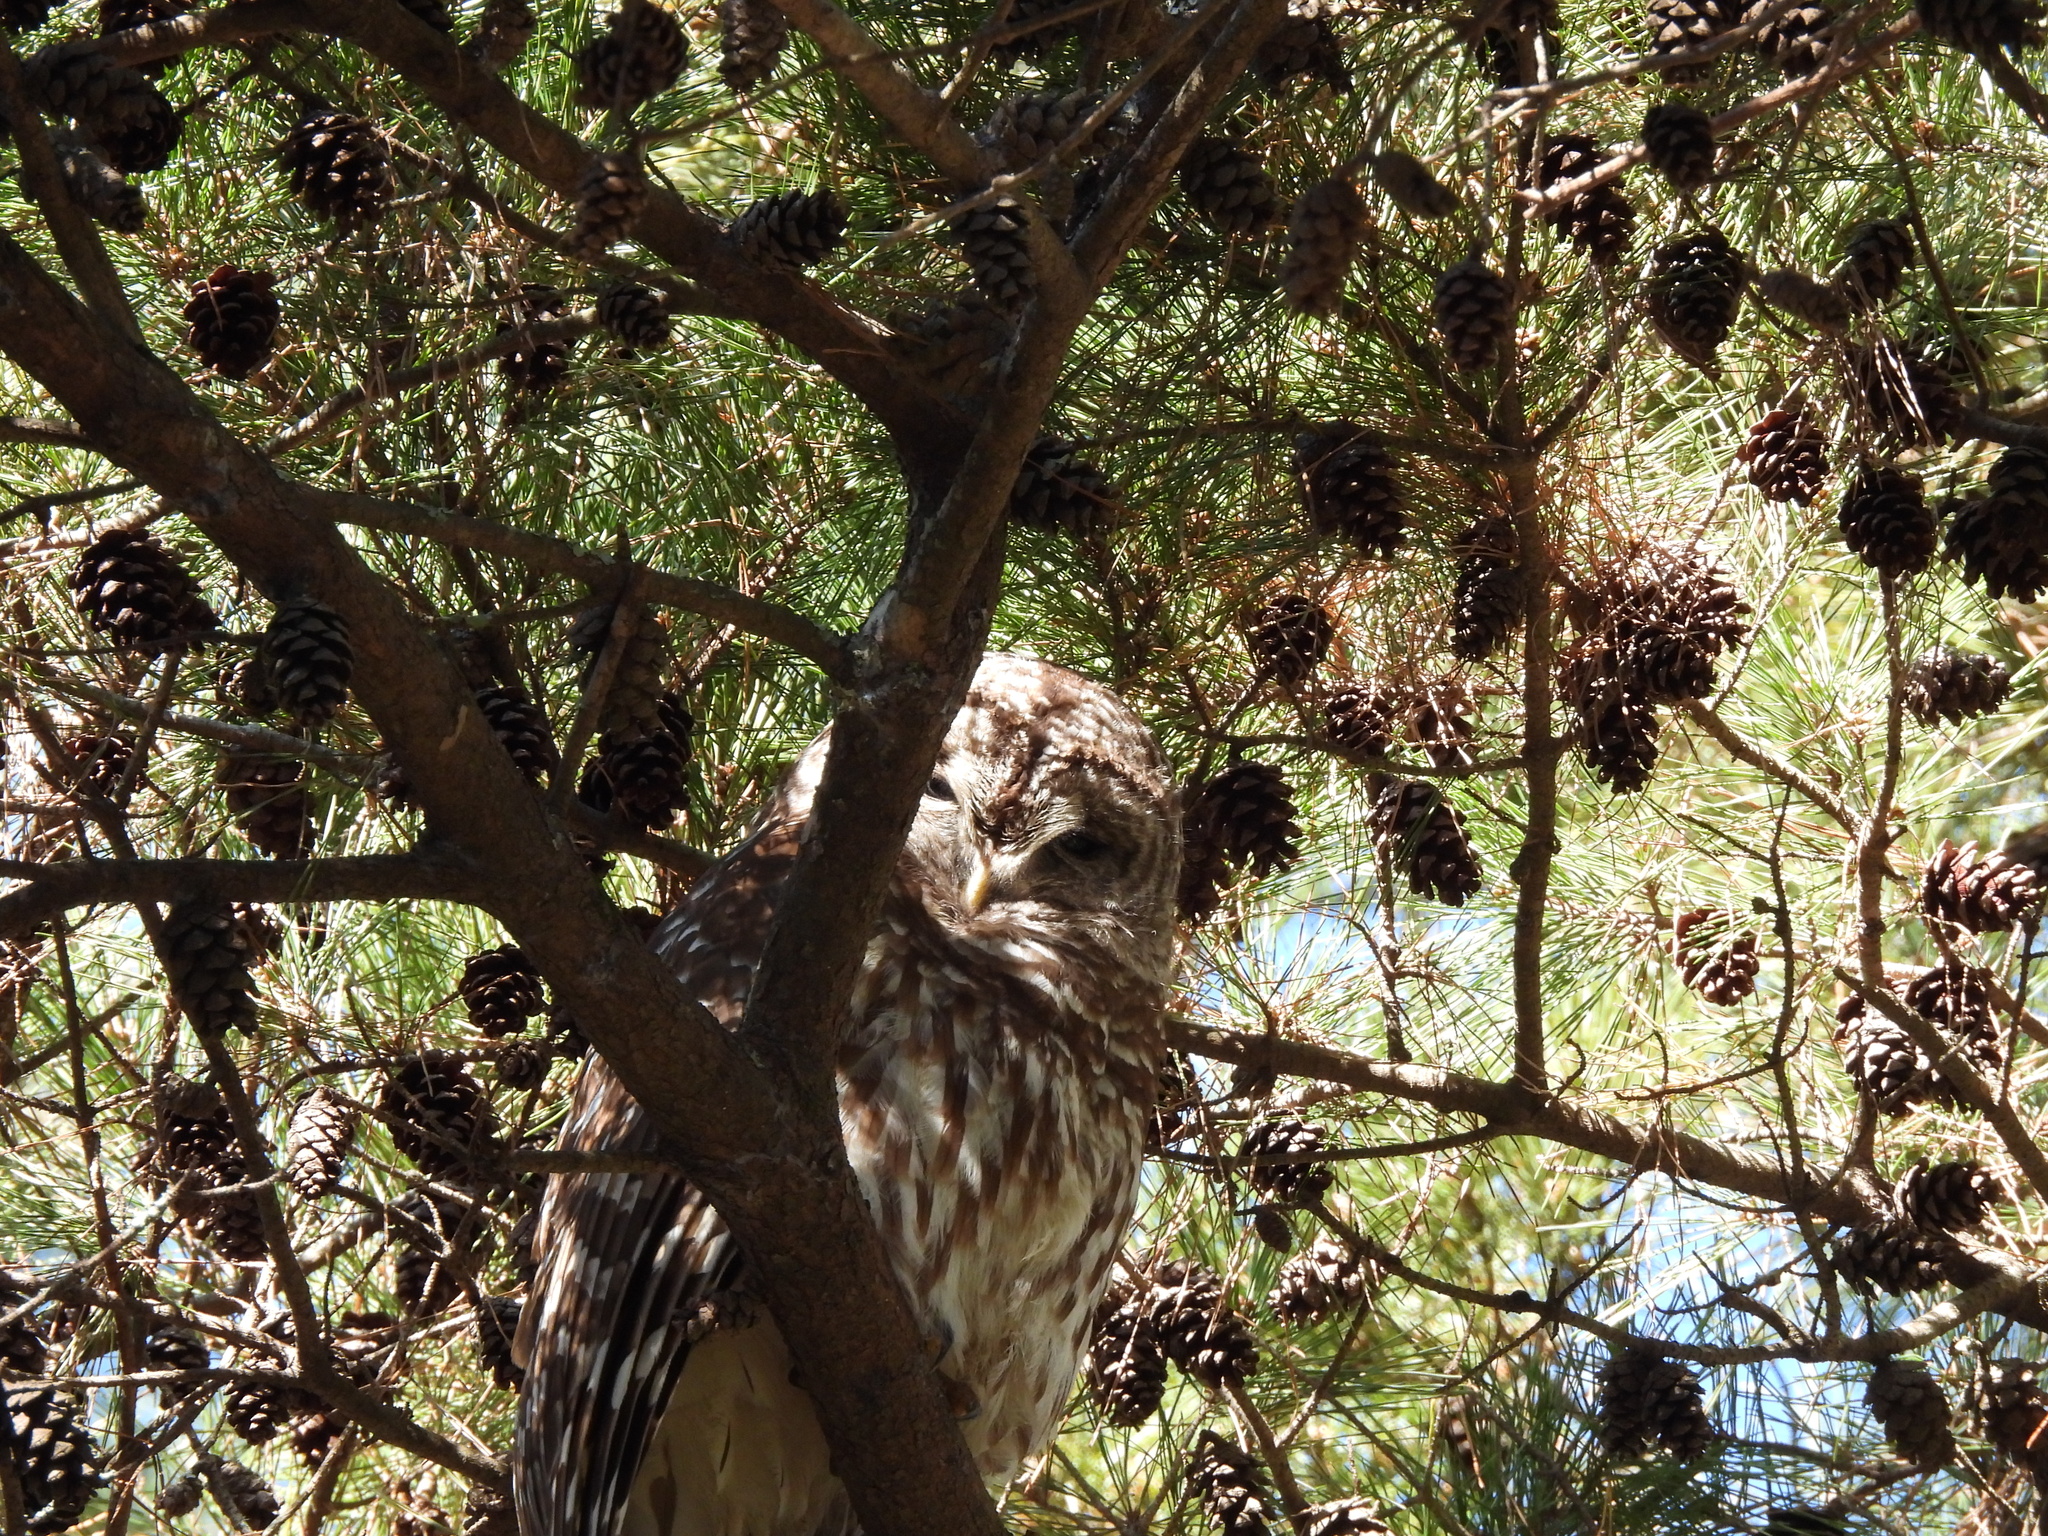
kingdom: Animalia
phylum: Chordata
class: Aves
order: Strigiformes
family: Strigidae
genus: Strix
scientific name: Strix varia
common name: Barred owl
